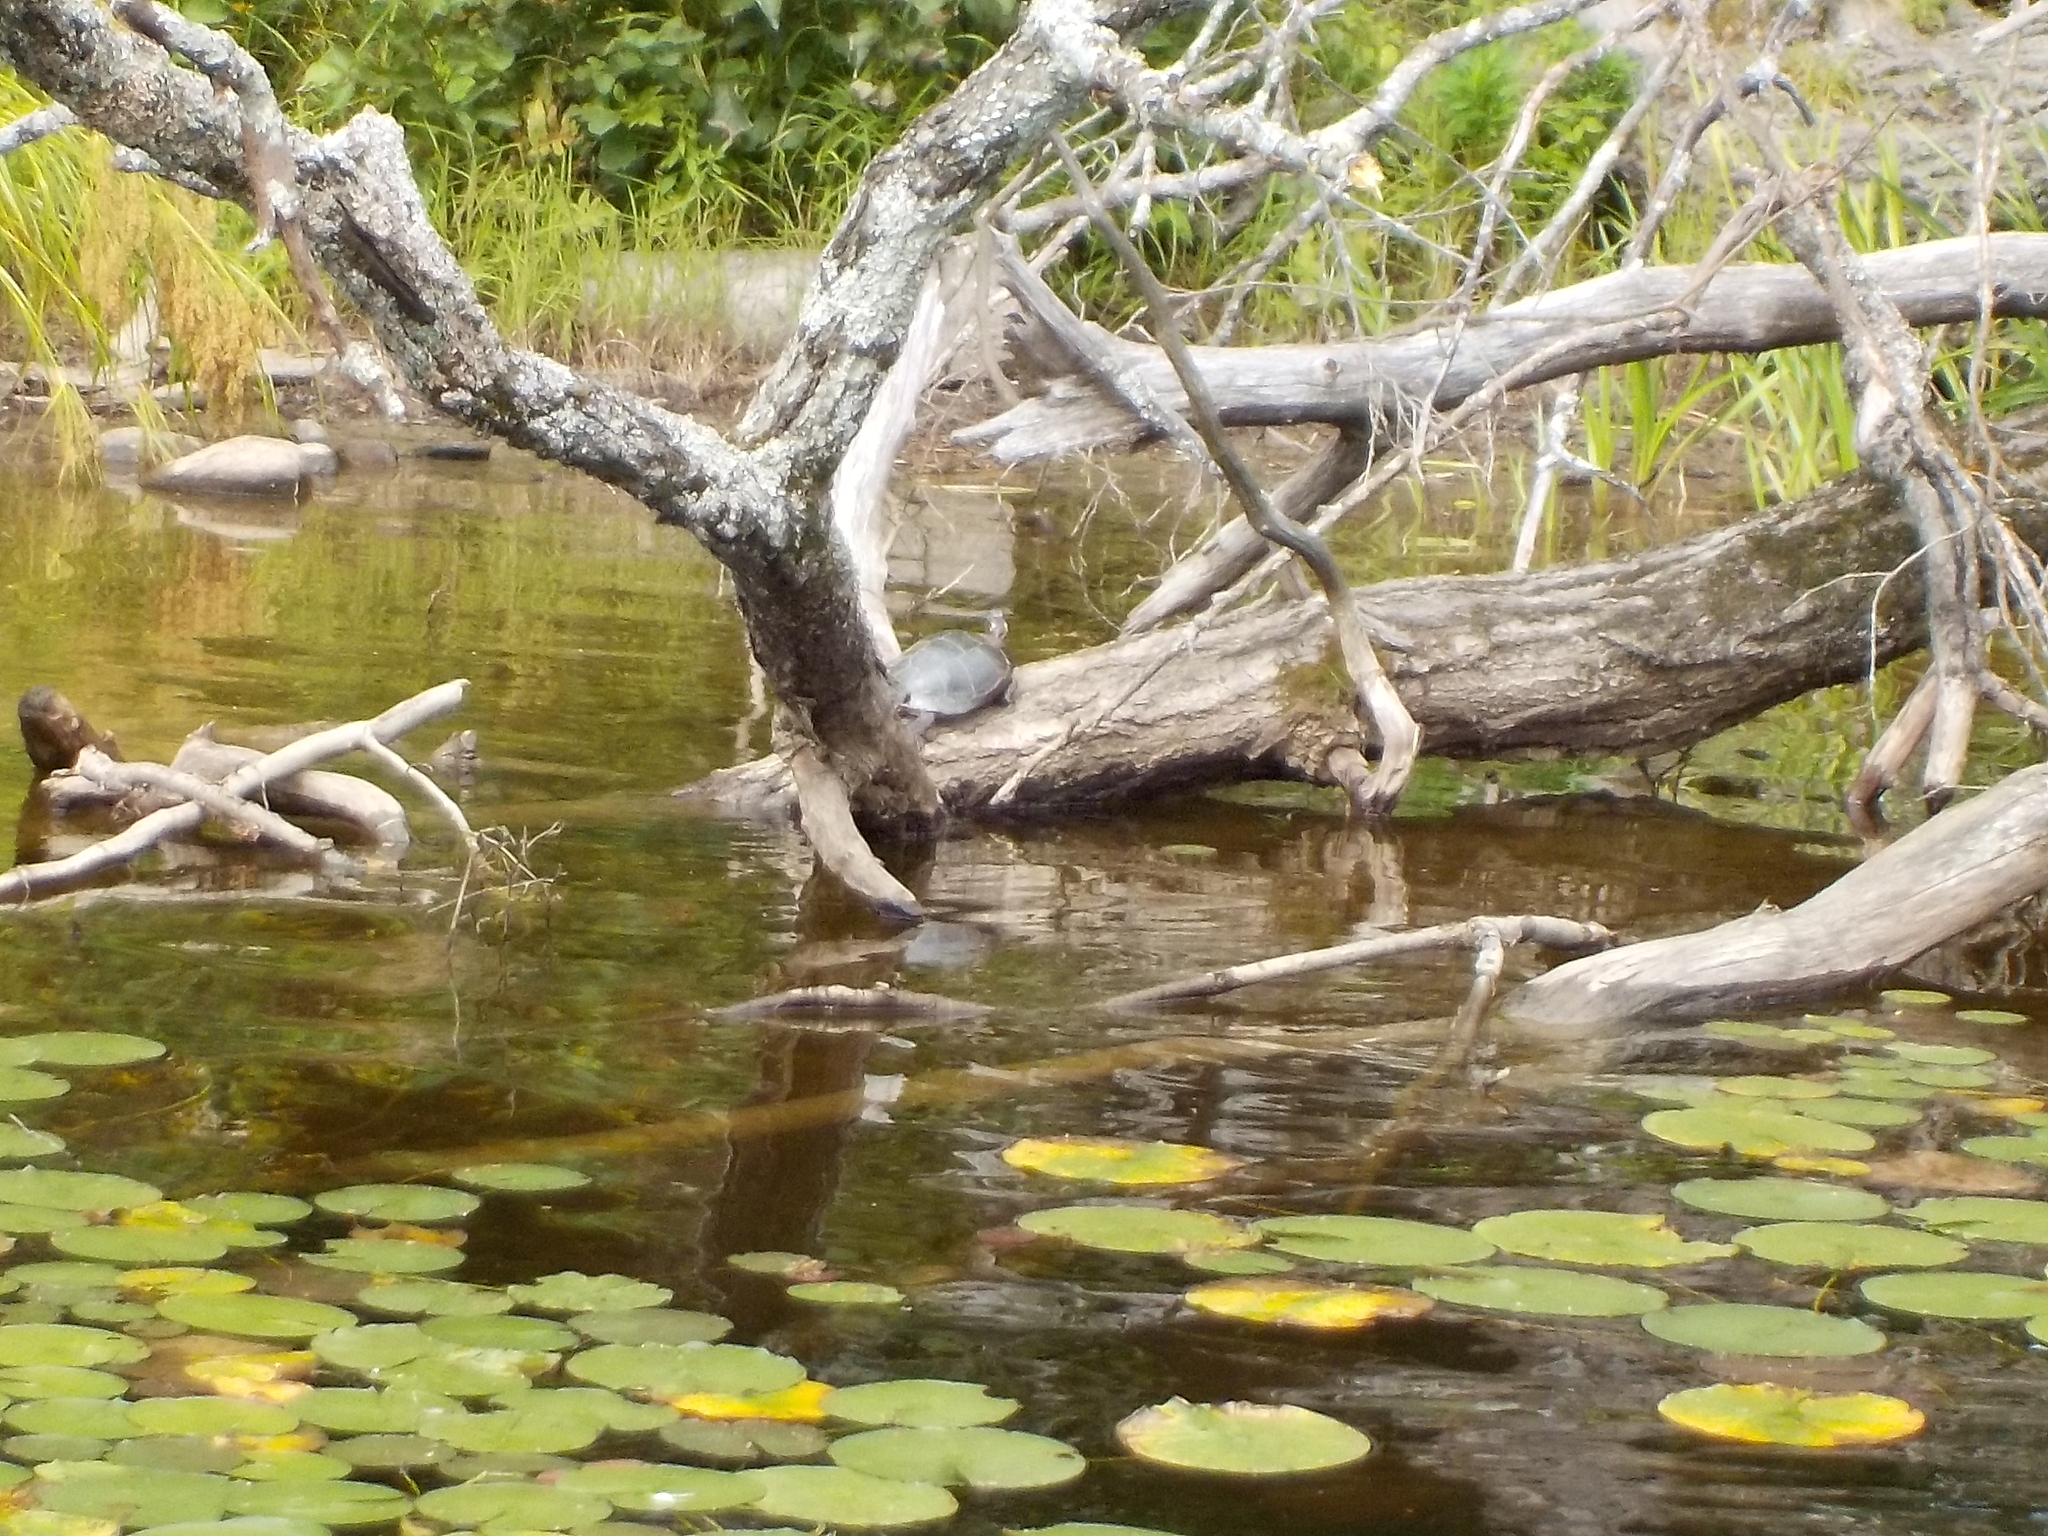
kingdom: Animalia
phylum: Chordata
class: Testudines
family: Emydidae
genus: Chrysemys
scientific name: Chrysemys picta
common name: Painted turtle
